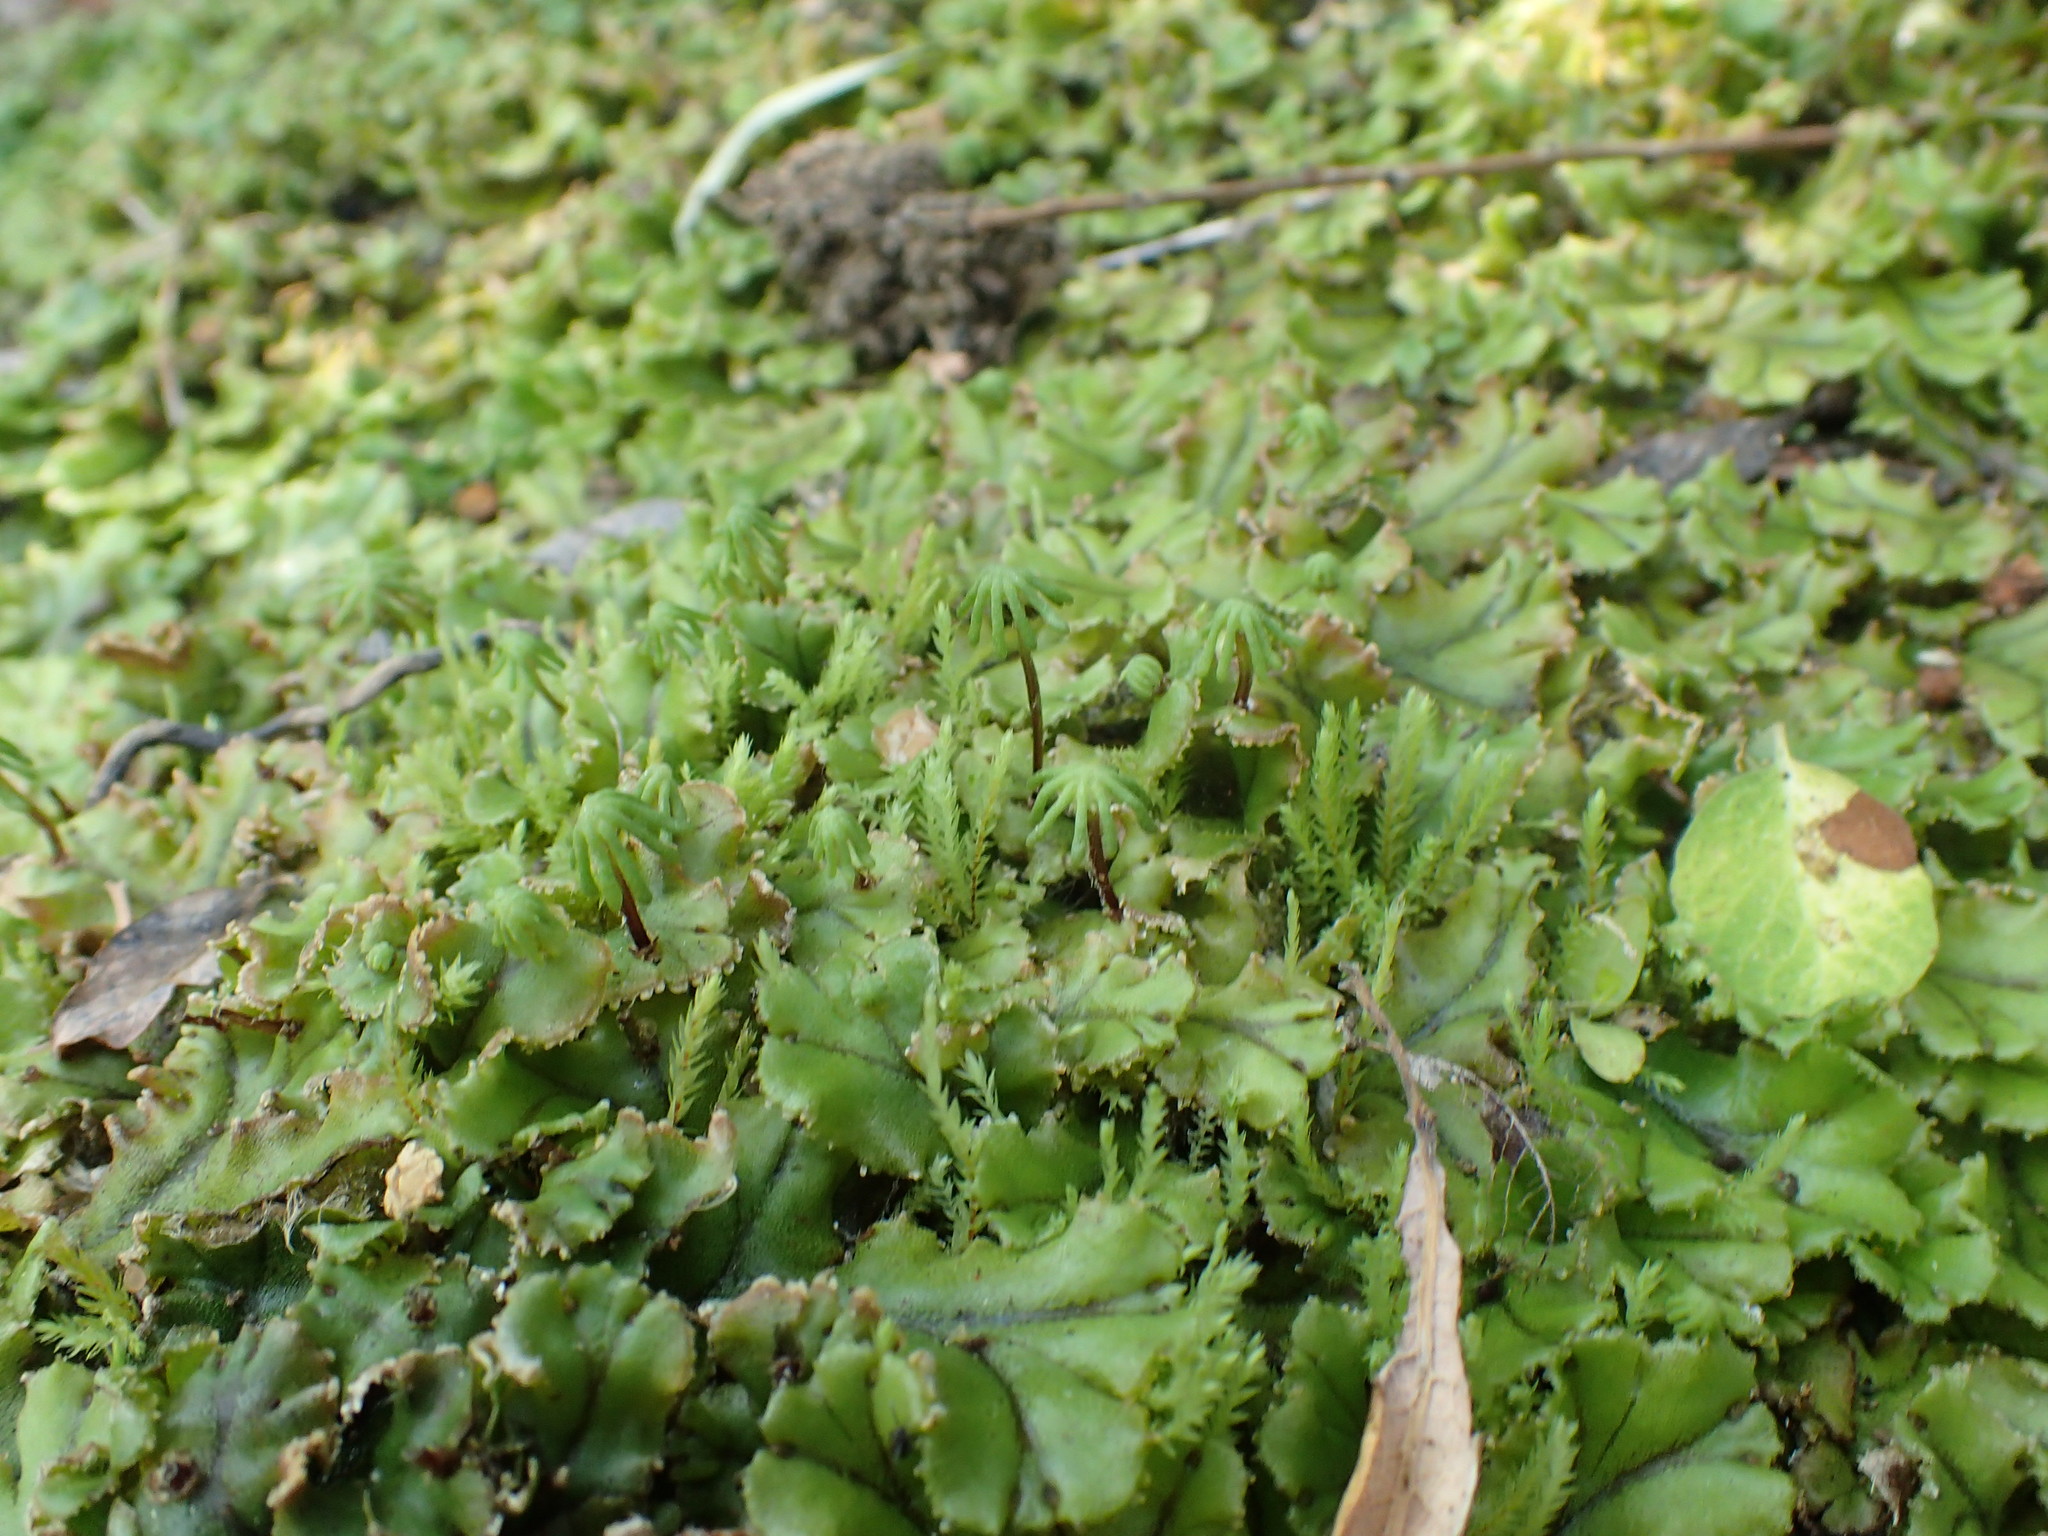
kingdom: Plantae
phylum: Marchantiophyta
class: Marchantiopsida
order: Marchantiales
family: Marchantiaceae
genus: Marchantia
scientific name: Marchantia polymorpha
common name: Common liverwort
